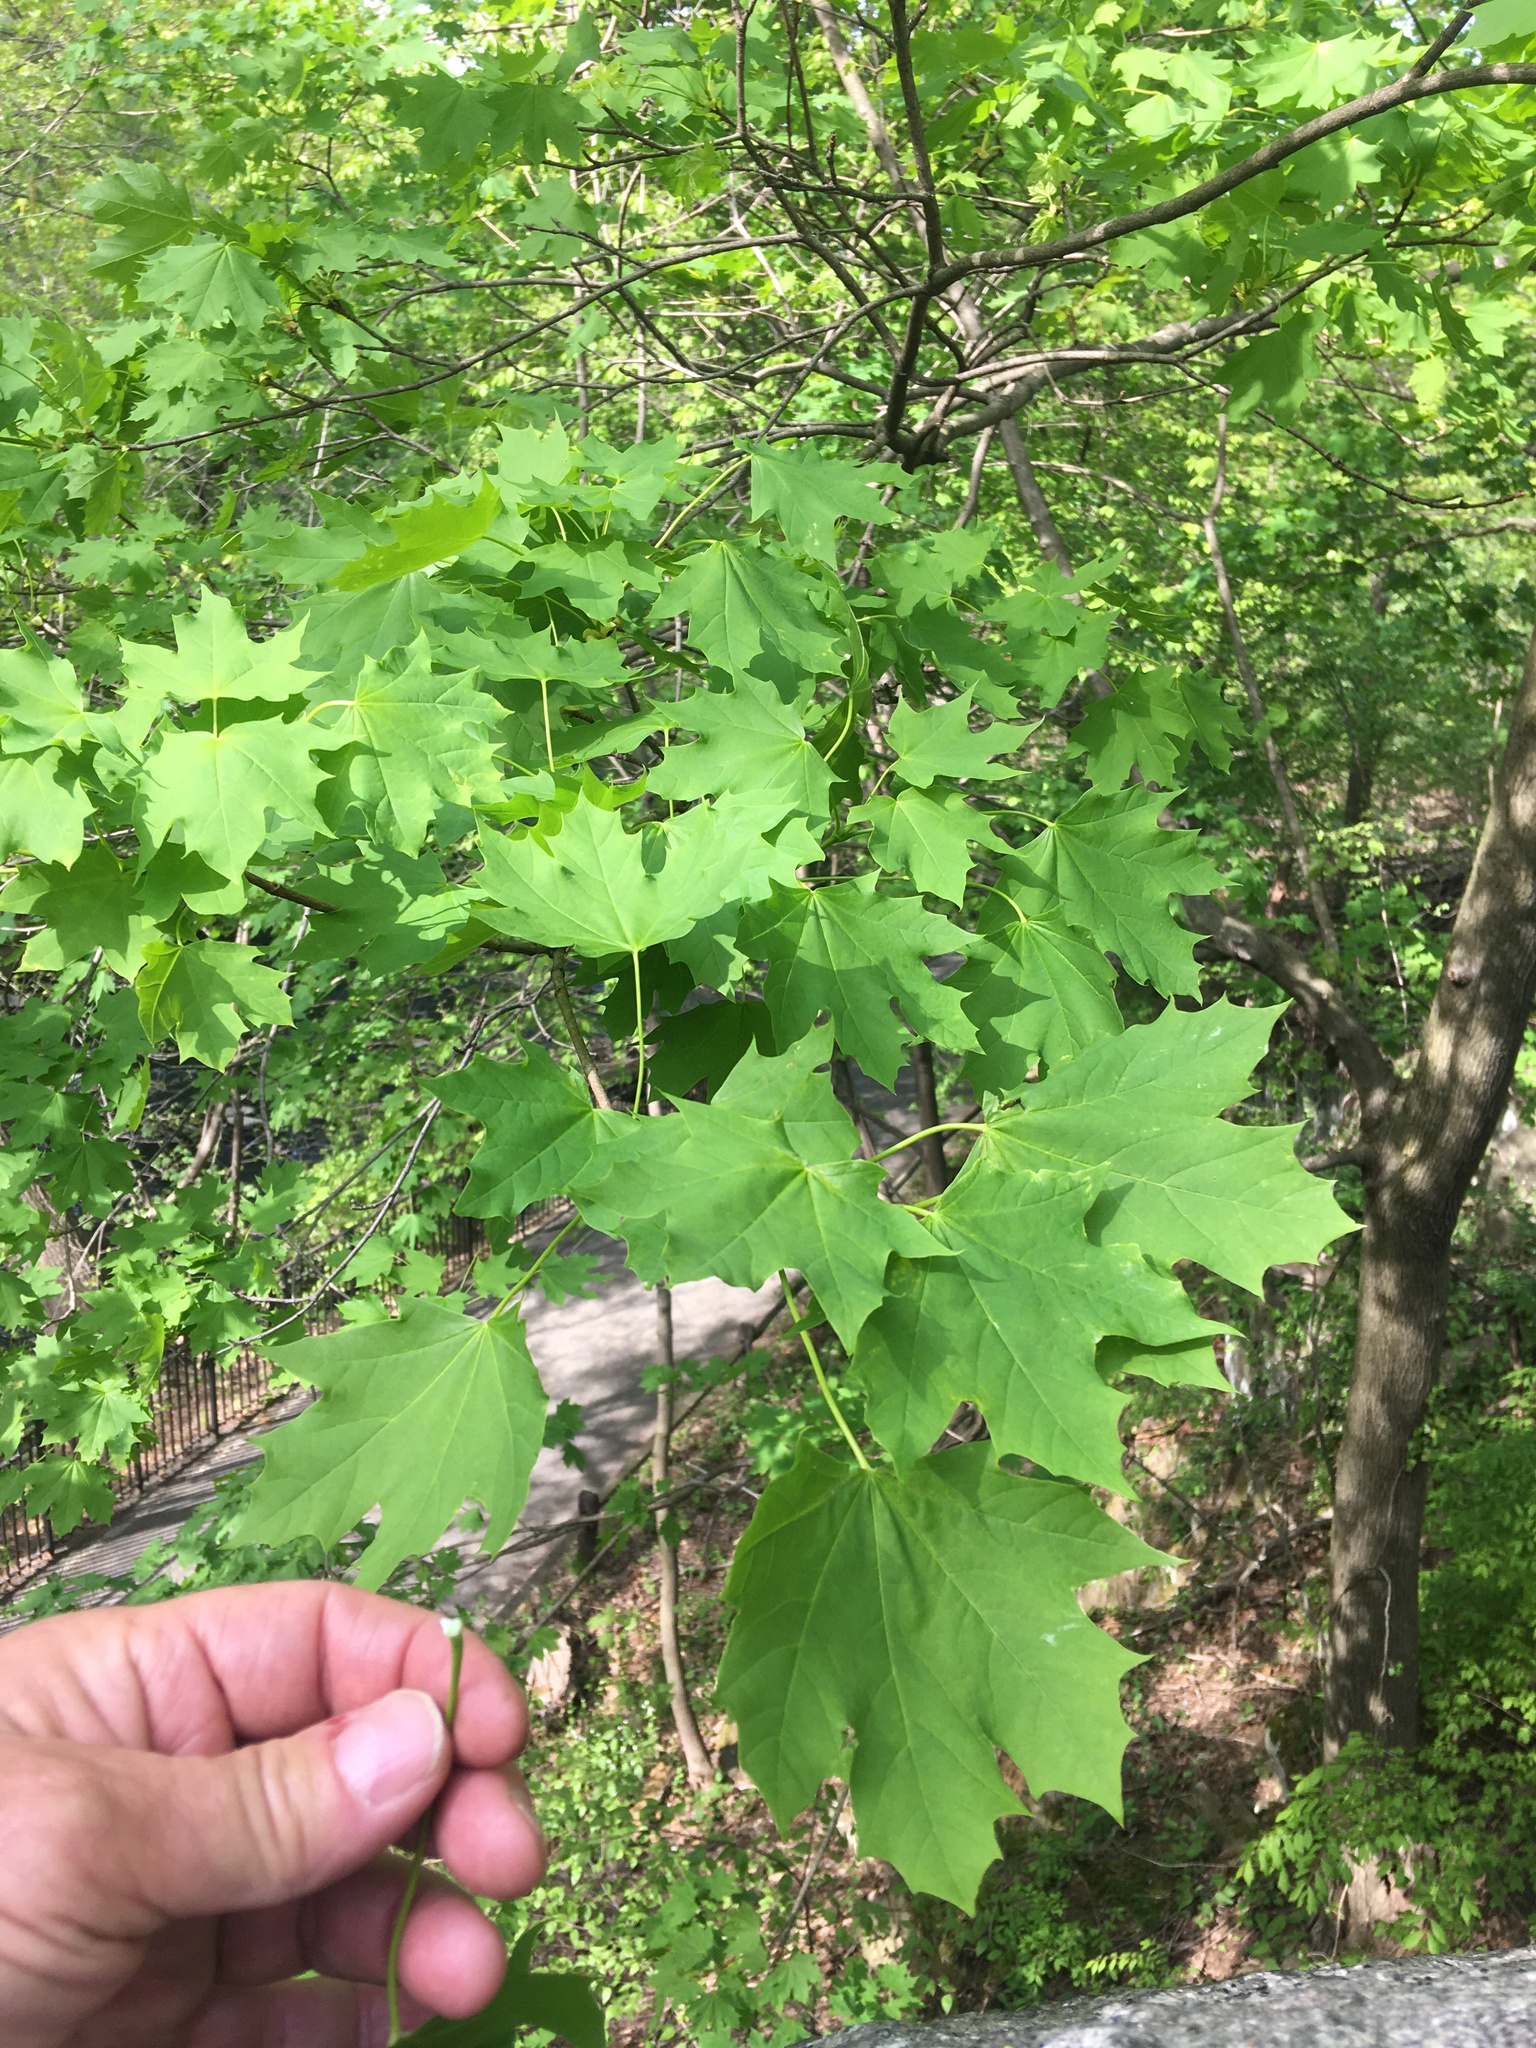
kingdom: Plantae
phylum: Tracheophyta
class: Magnoliopsida
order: Sapindales
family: Sapindaceae
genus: Acer
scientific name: Acer platanoides
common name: Norway maple
